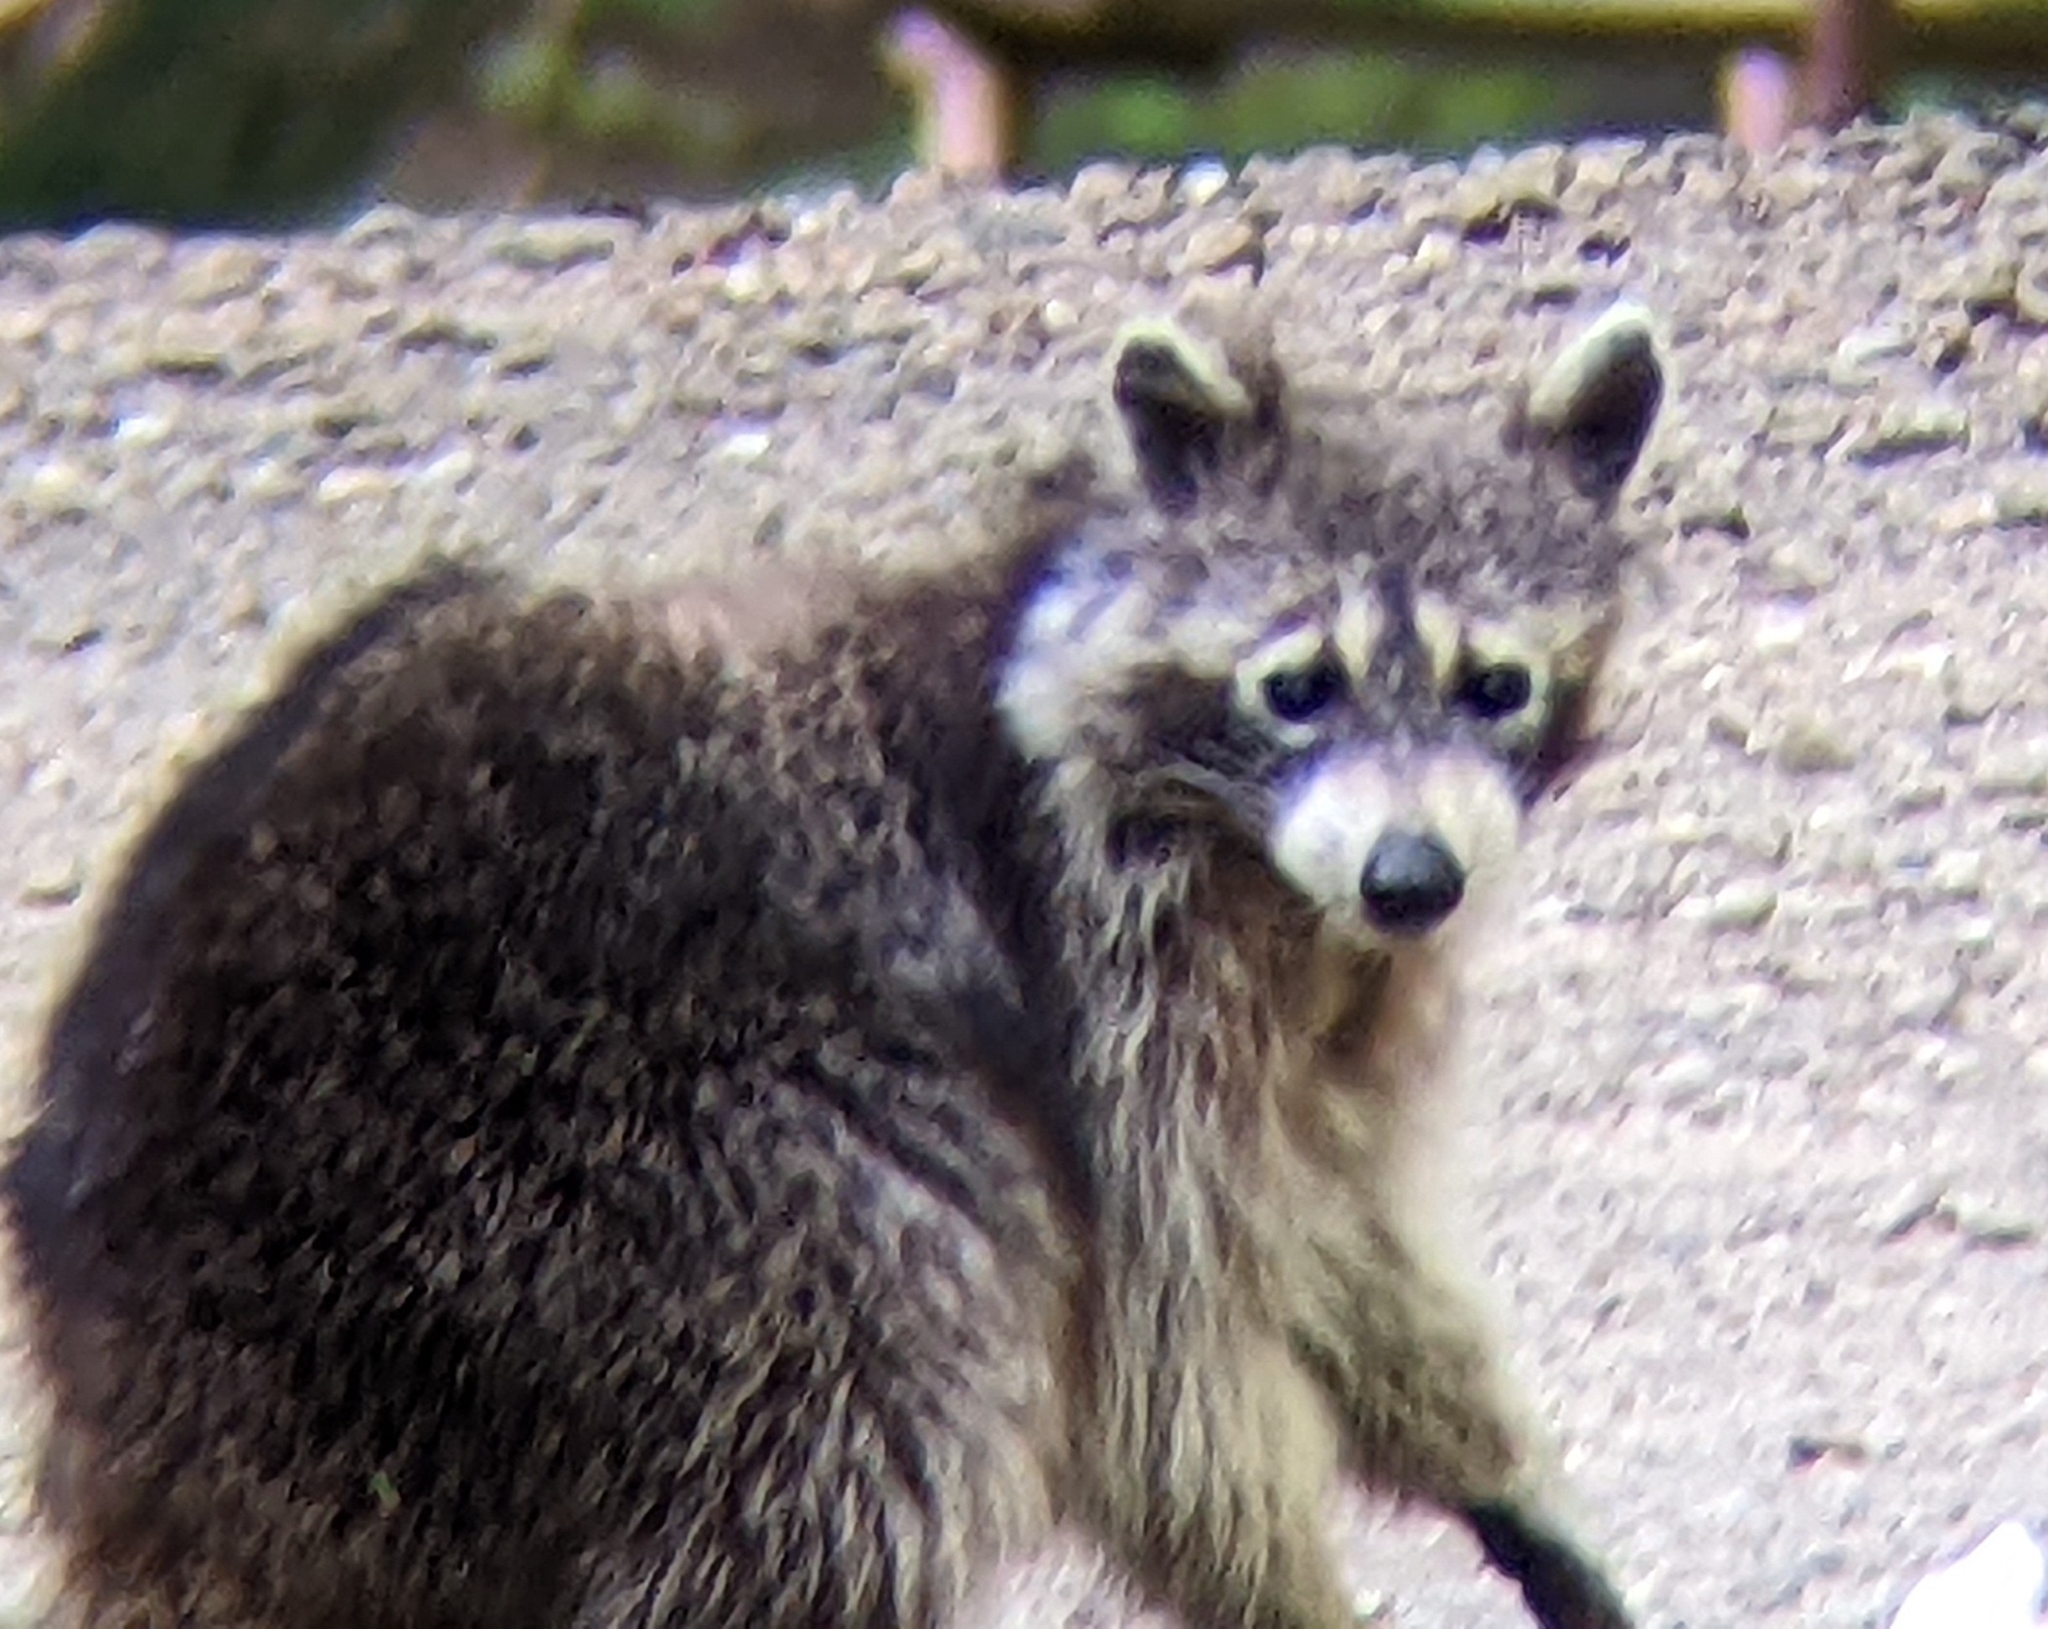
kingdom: Animalia
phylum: Chordata
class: Mammalia
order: Carnivora
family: Procyonidae
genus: Procyon
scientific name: Procyon lotor
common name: Raccoon
